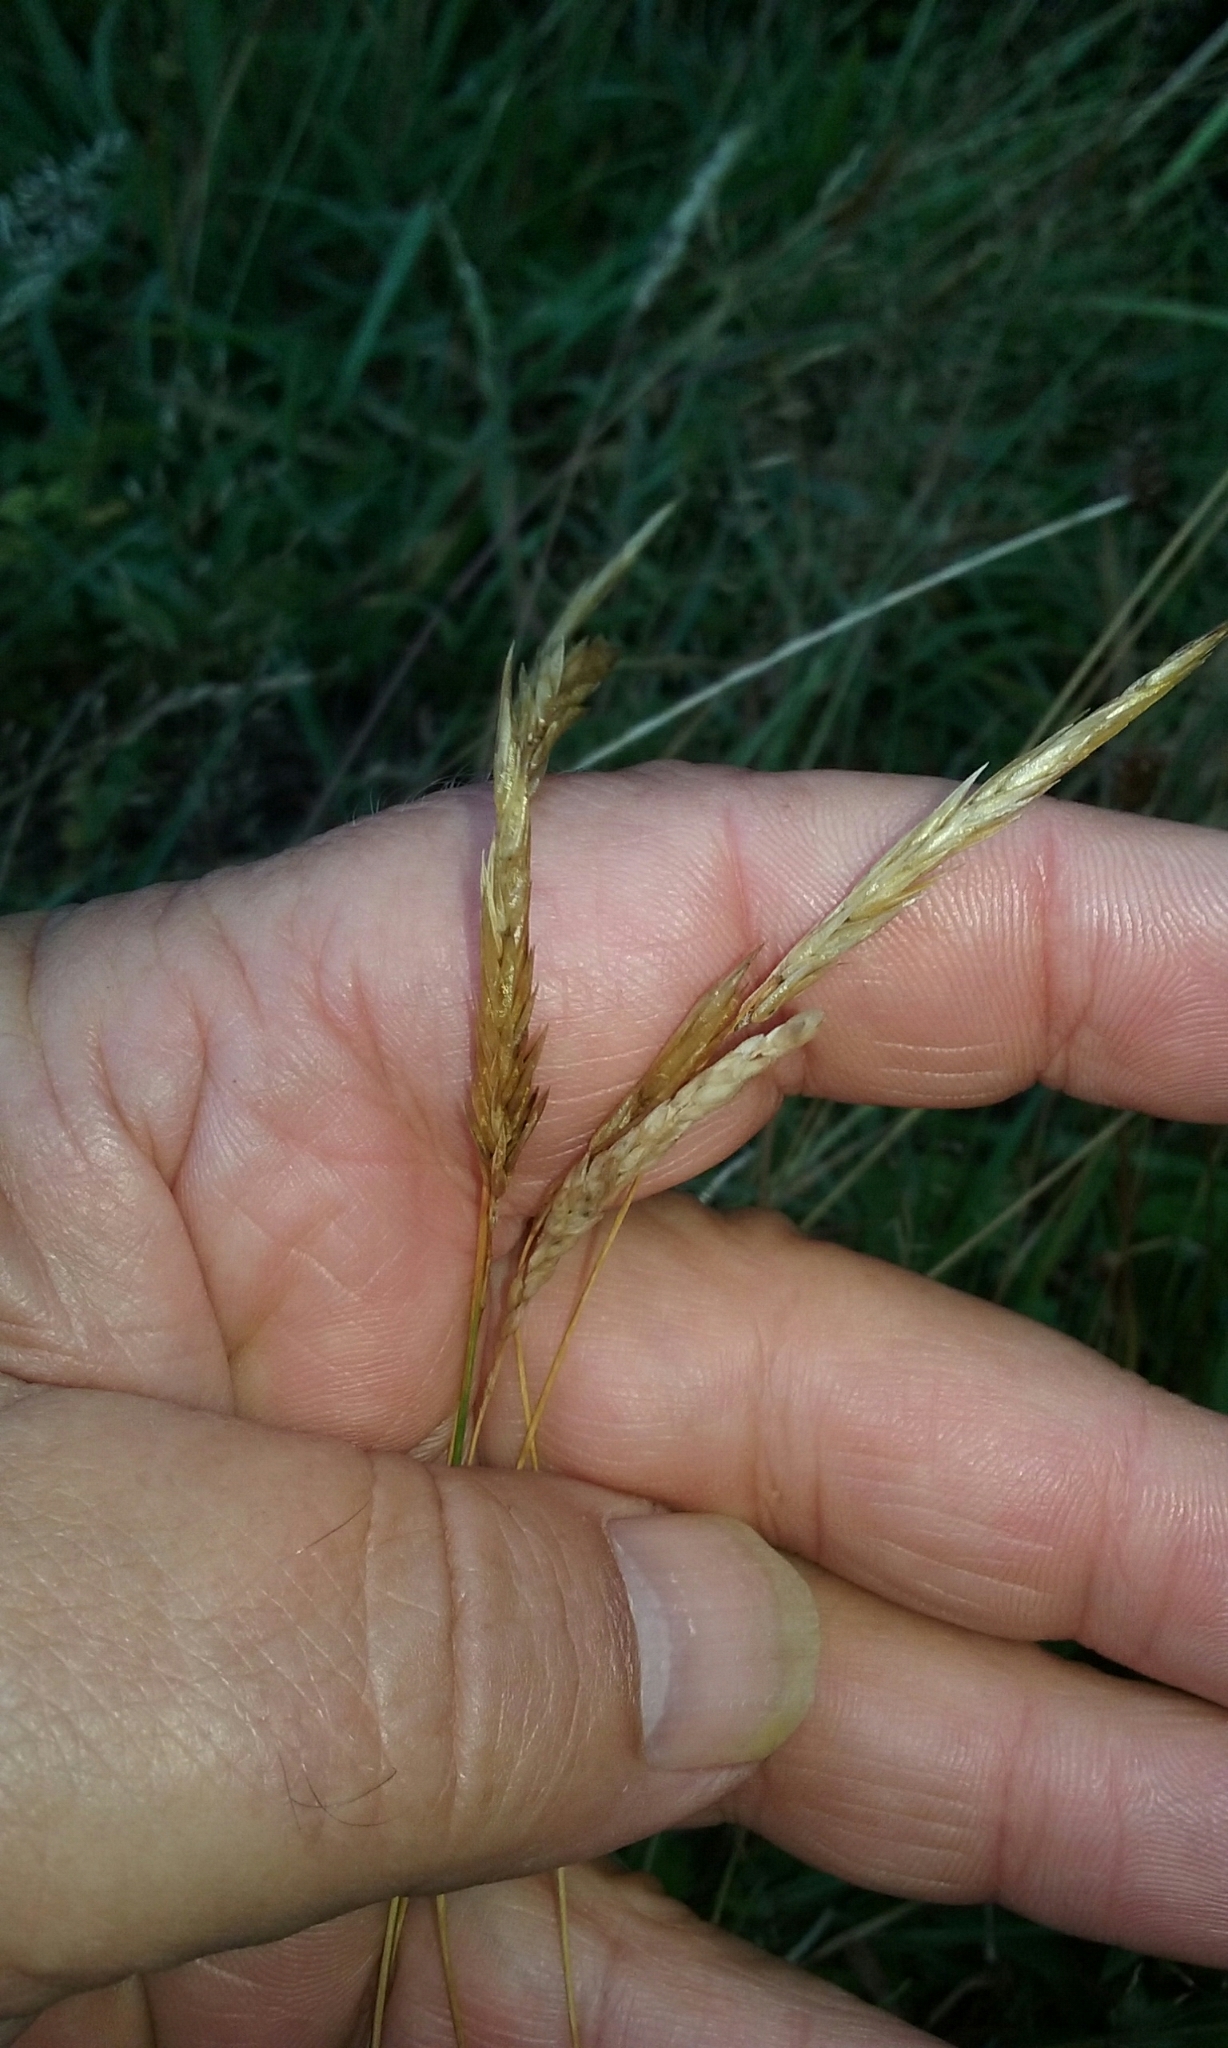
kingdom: Plantae
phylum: Tracheophyta
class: Liliopsida
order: Poales
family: Poaceae
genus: Anthoxanthum
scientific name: Anthoxanthum odoratum
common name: Sweet vernalgrass
